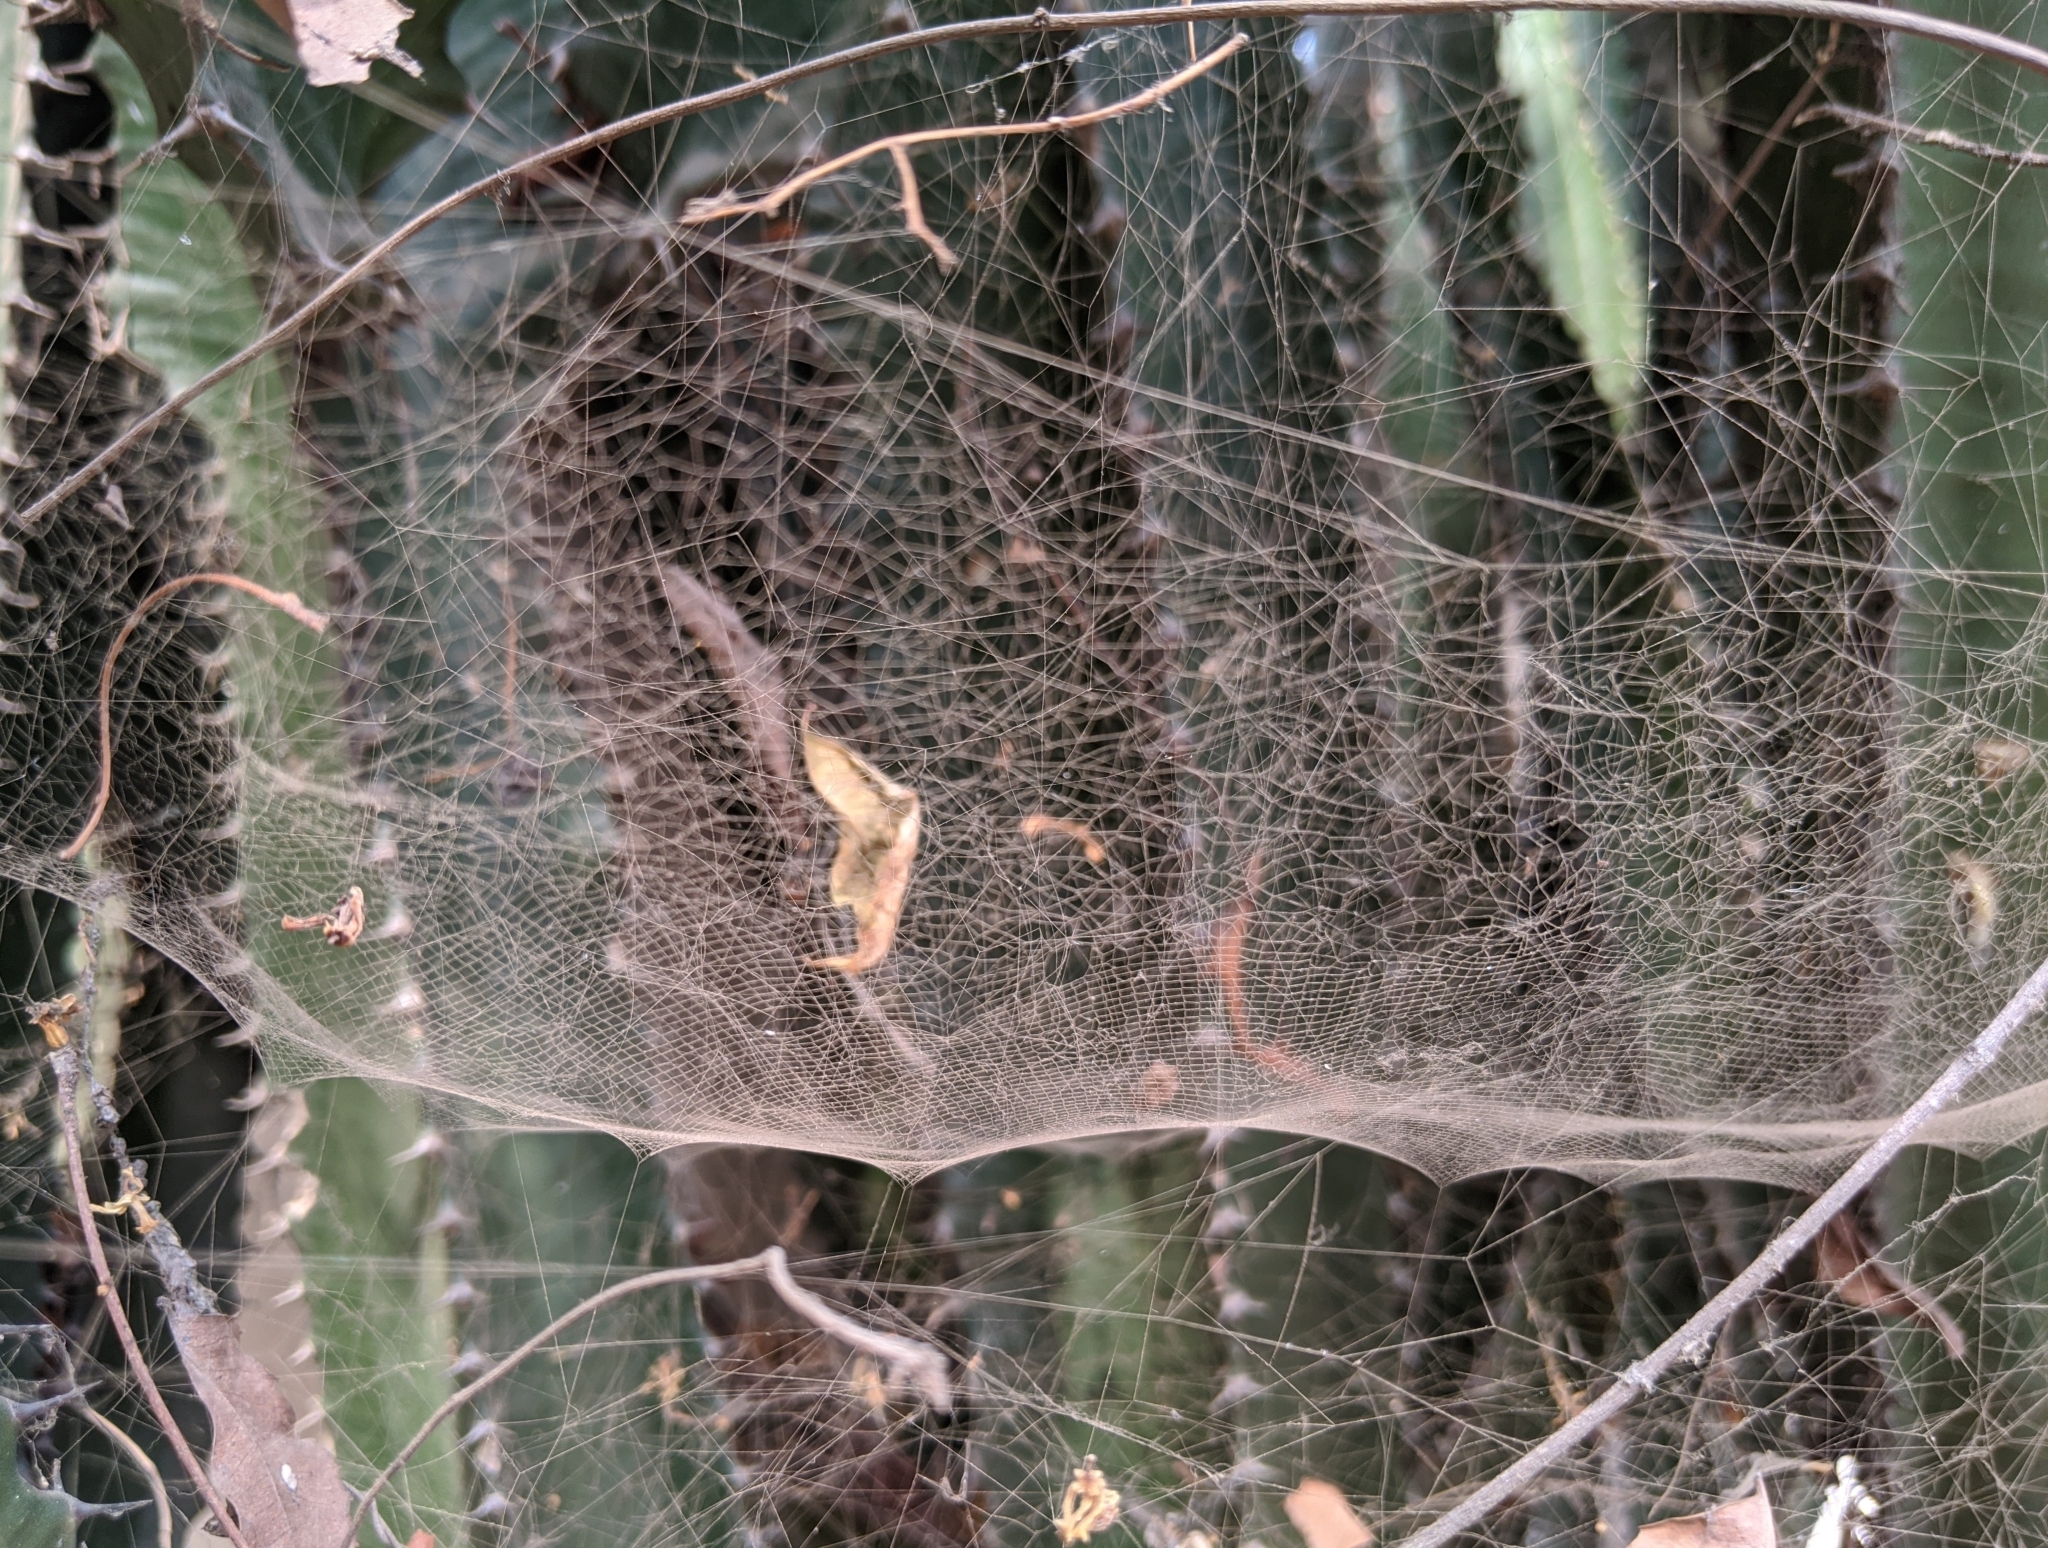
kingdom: Animalia
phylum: Arthropoda
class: Arachnida
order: Araneae
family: Araneidae
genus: Cyrtophora
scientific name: Cyrtophora citricola
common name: Orb weavers
